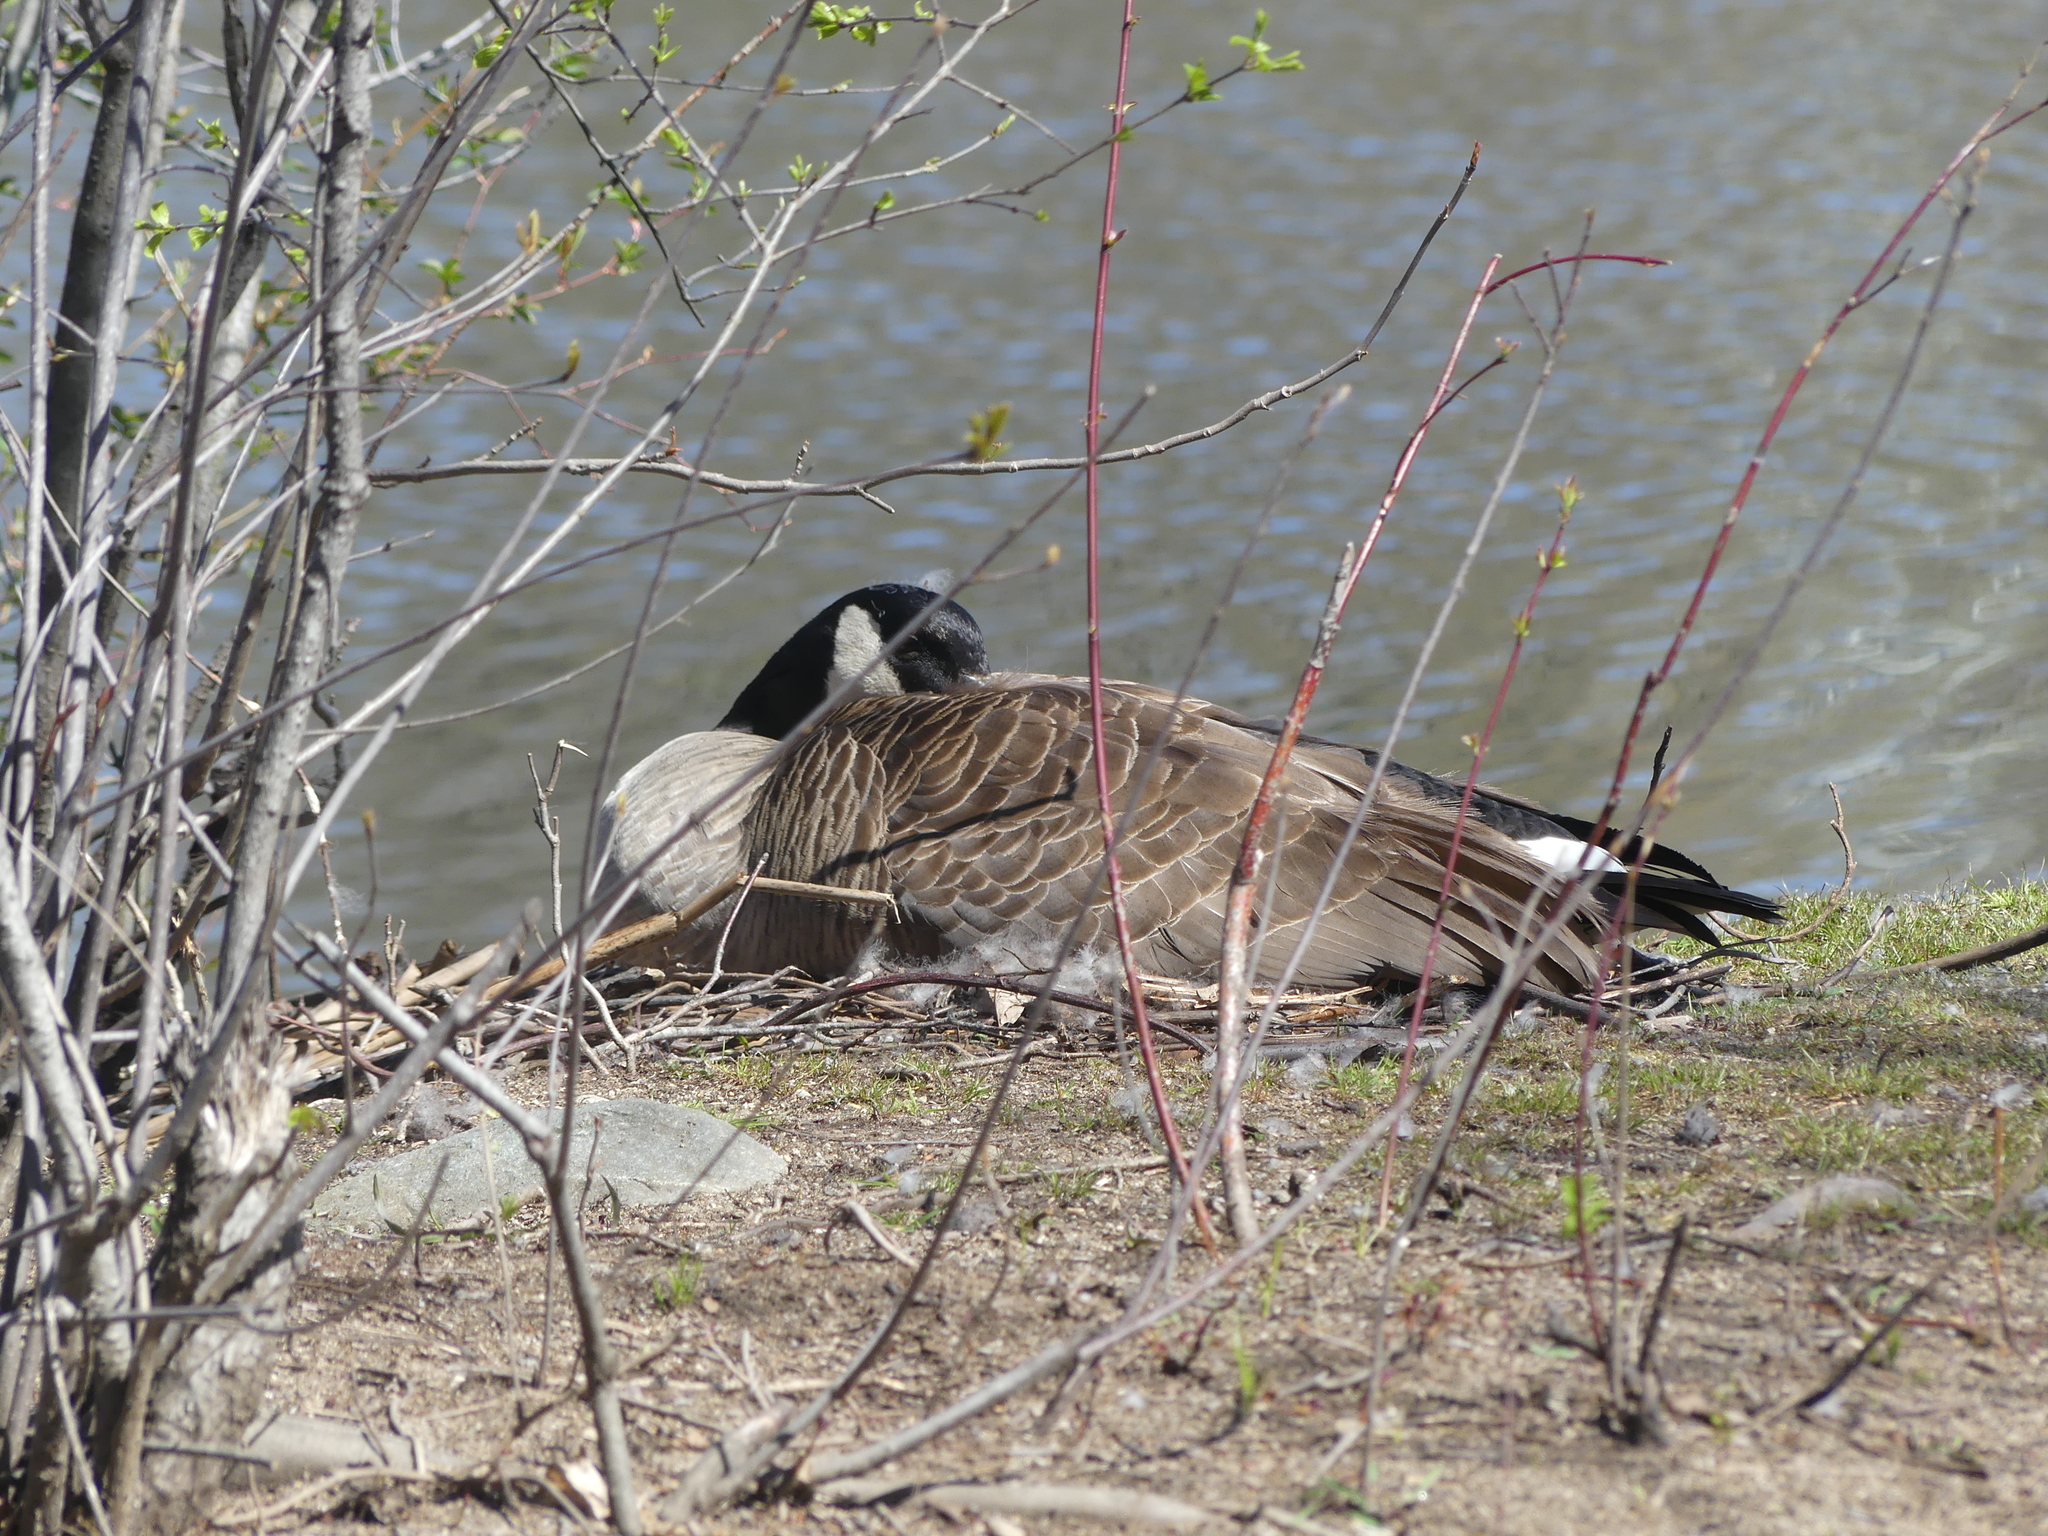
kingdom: Animalia
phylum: Chordata
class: Aves
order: Anseriformes
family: Anatidae
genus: Branta
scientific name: Branta canadensis
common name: Canada goose
